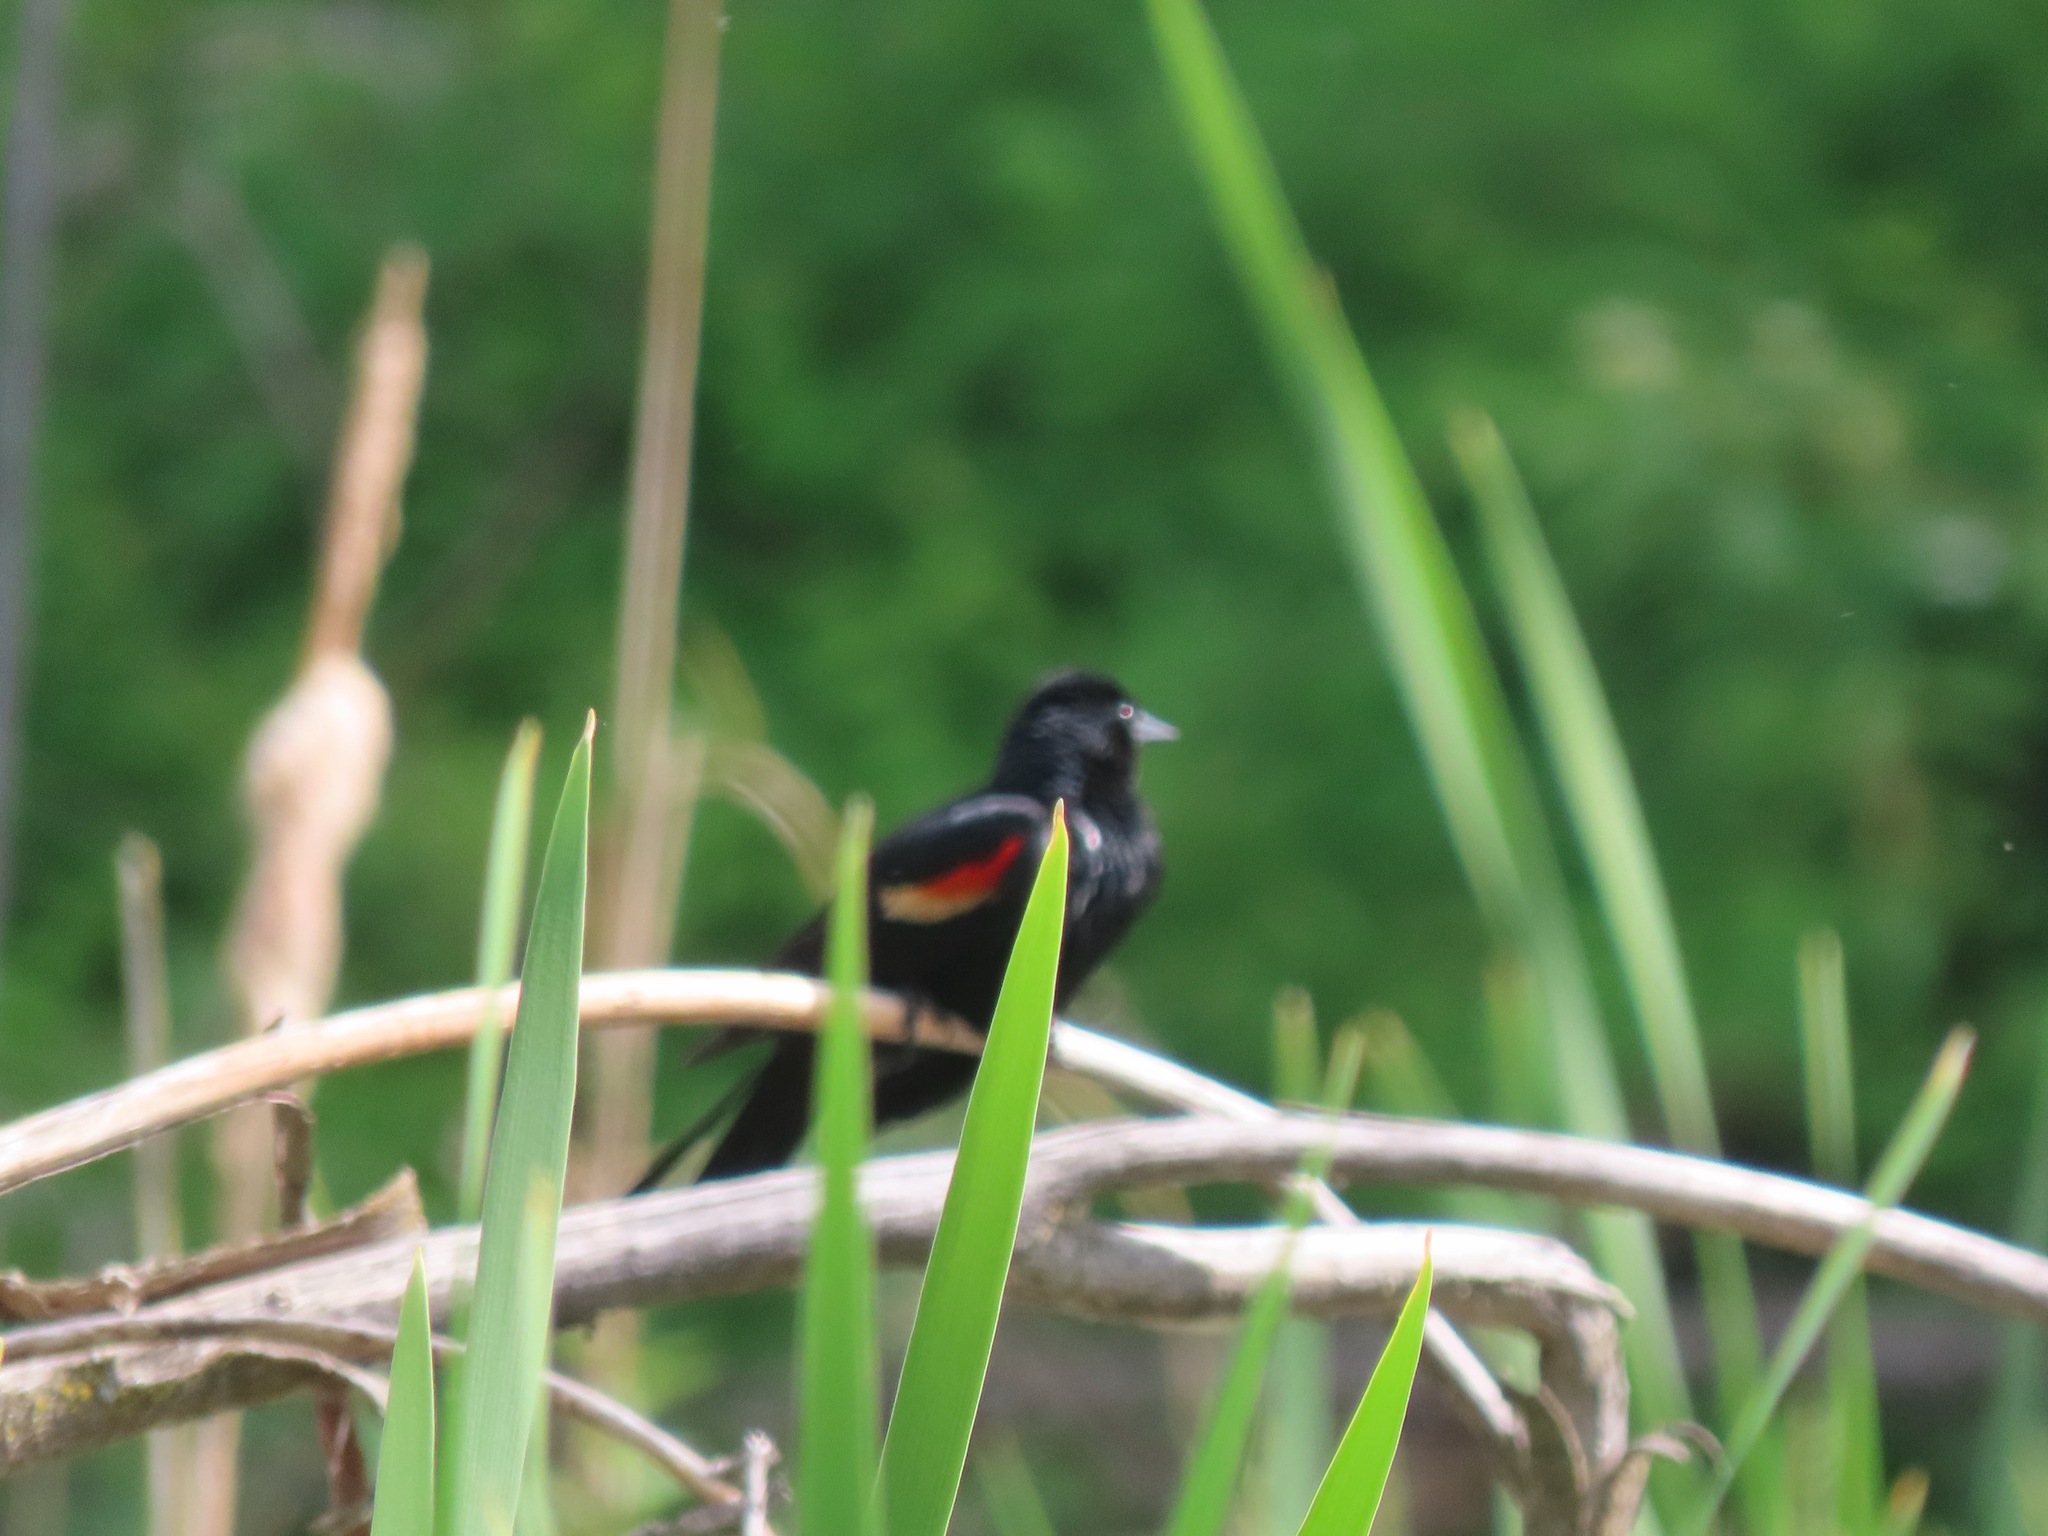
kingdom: Animalia
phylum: Chordata
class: Aves
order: Passeriformes
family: Icteridae
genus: Agelaius
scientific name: Agelaius phoeniceus
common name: Red-winged blackbird
